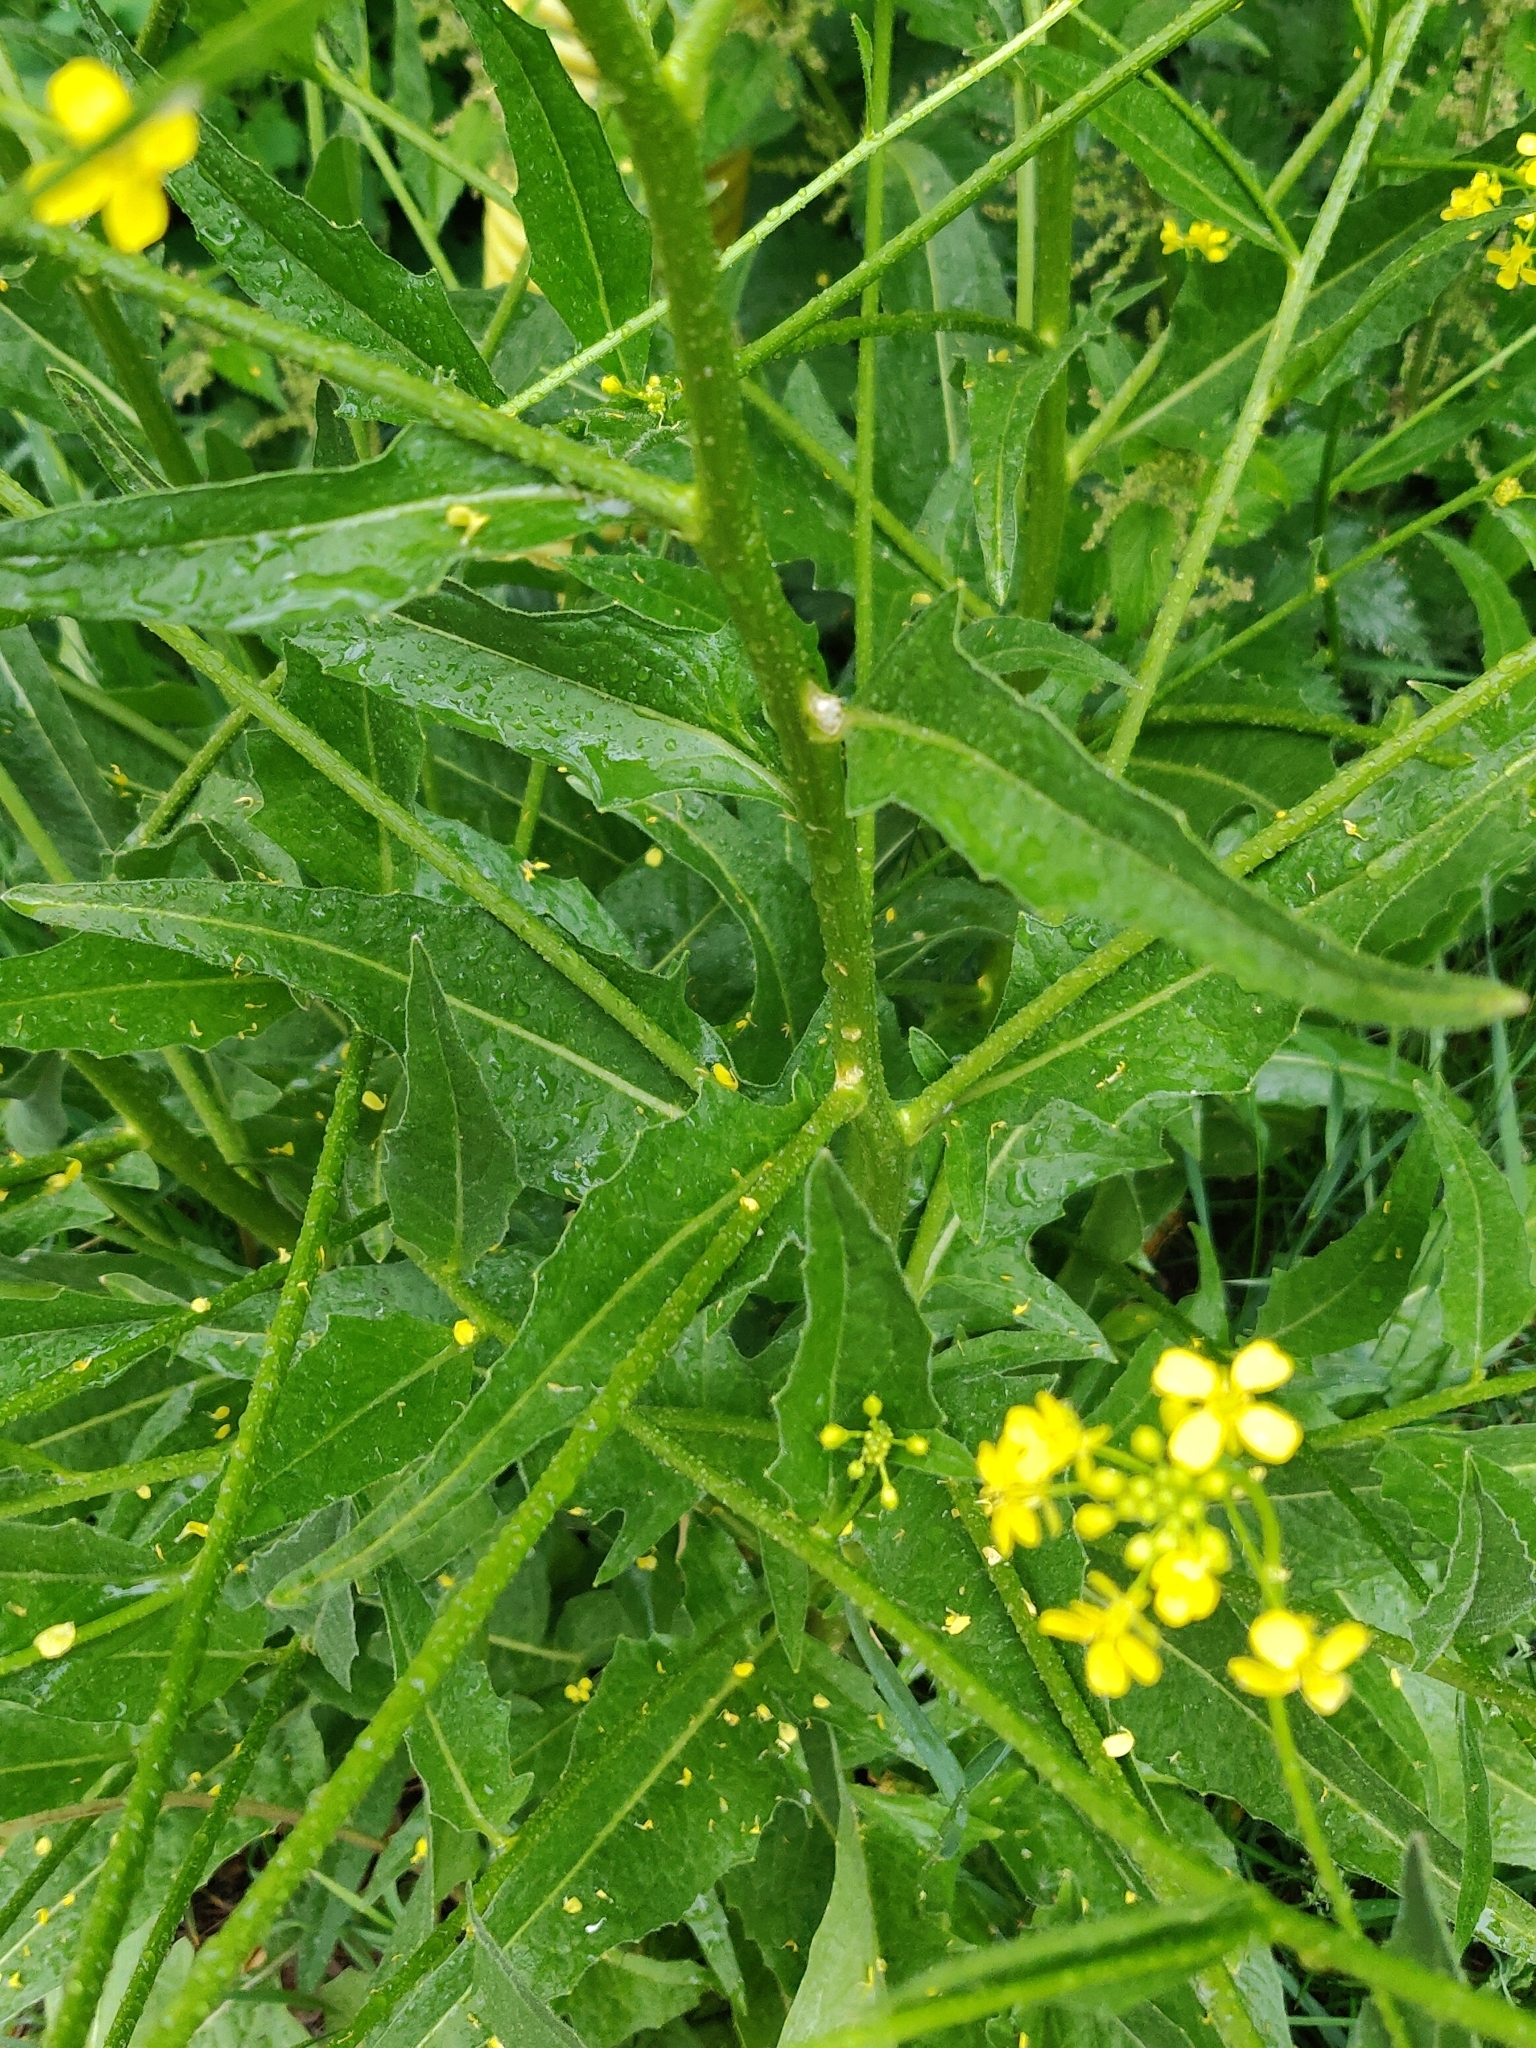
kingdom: Plantae
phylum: Tracheophyta
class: Magnoliopsida
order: Brassicales
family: Brassicaceae
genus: Bunias
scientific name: Bunias orientalis
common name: Warty-cabbage
